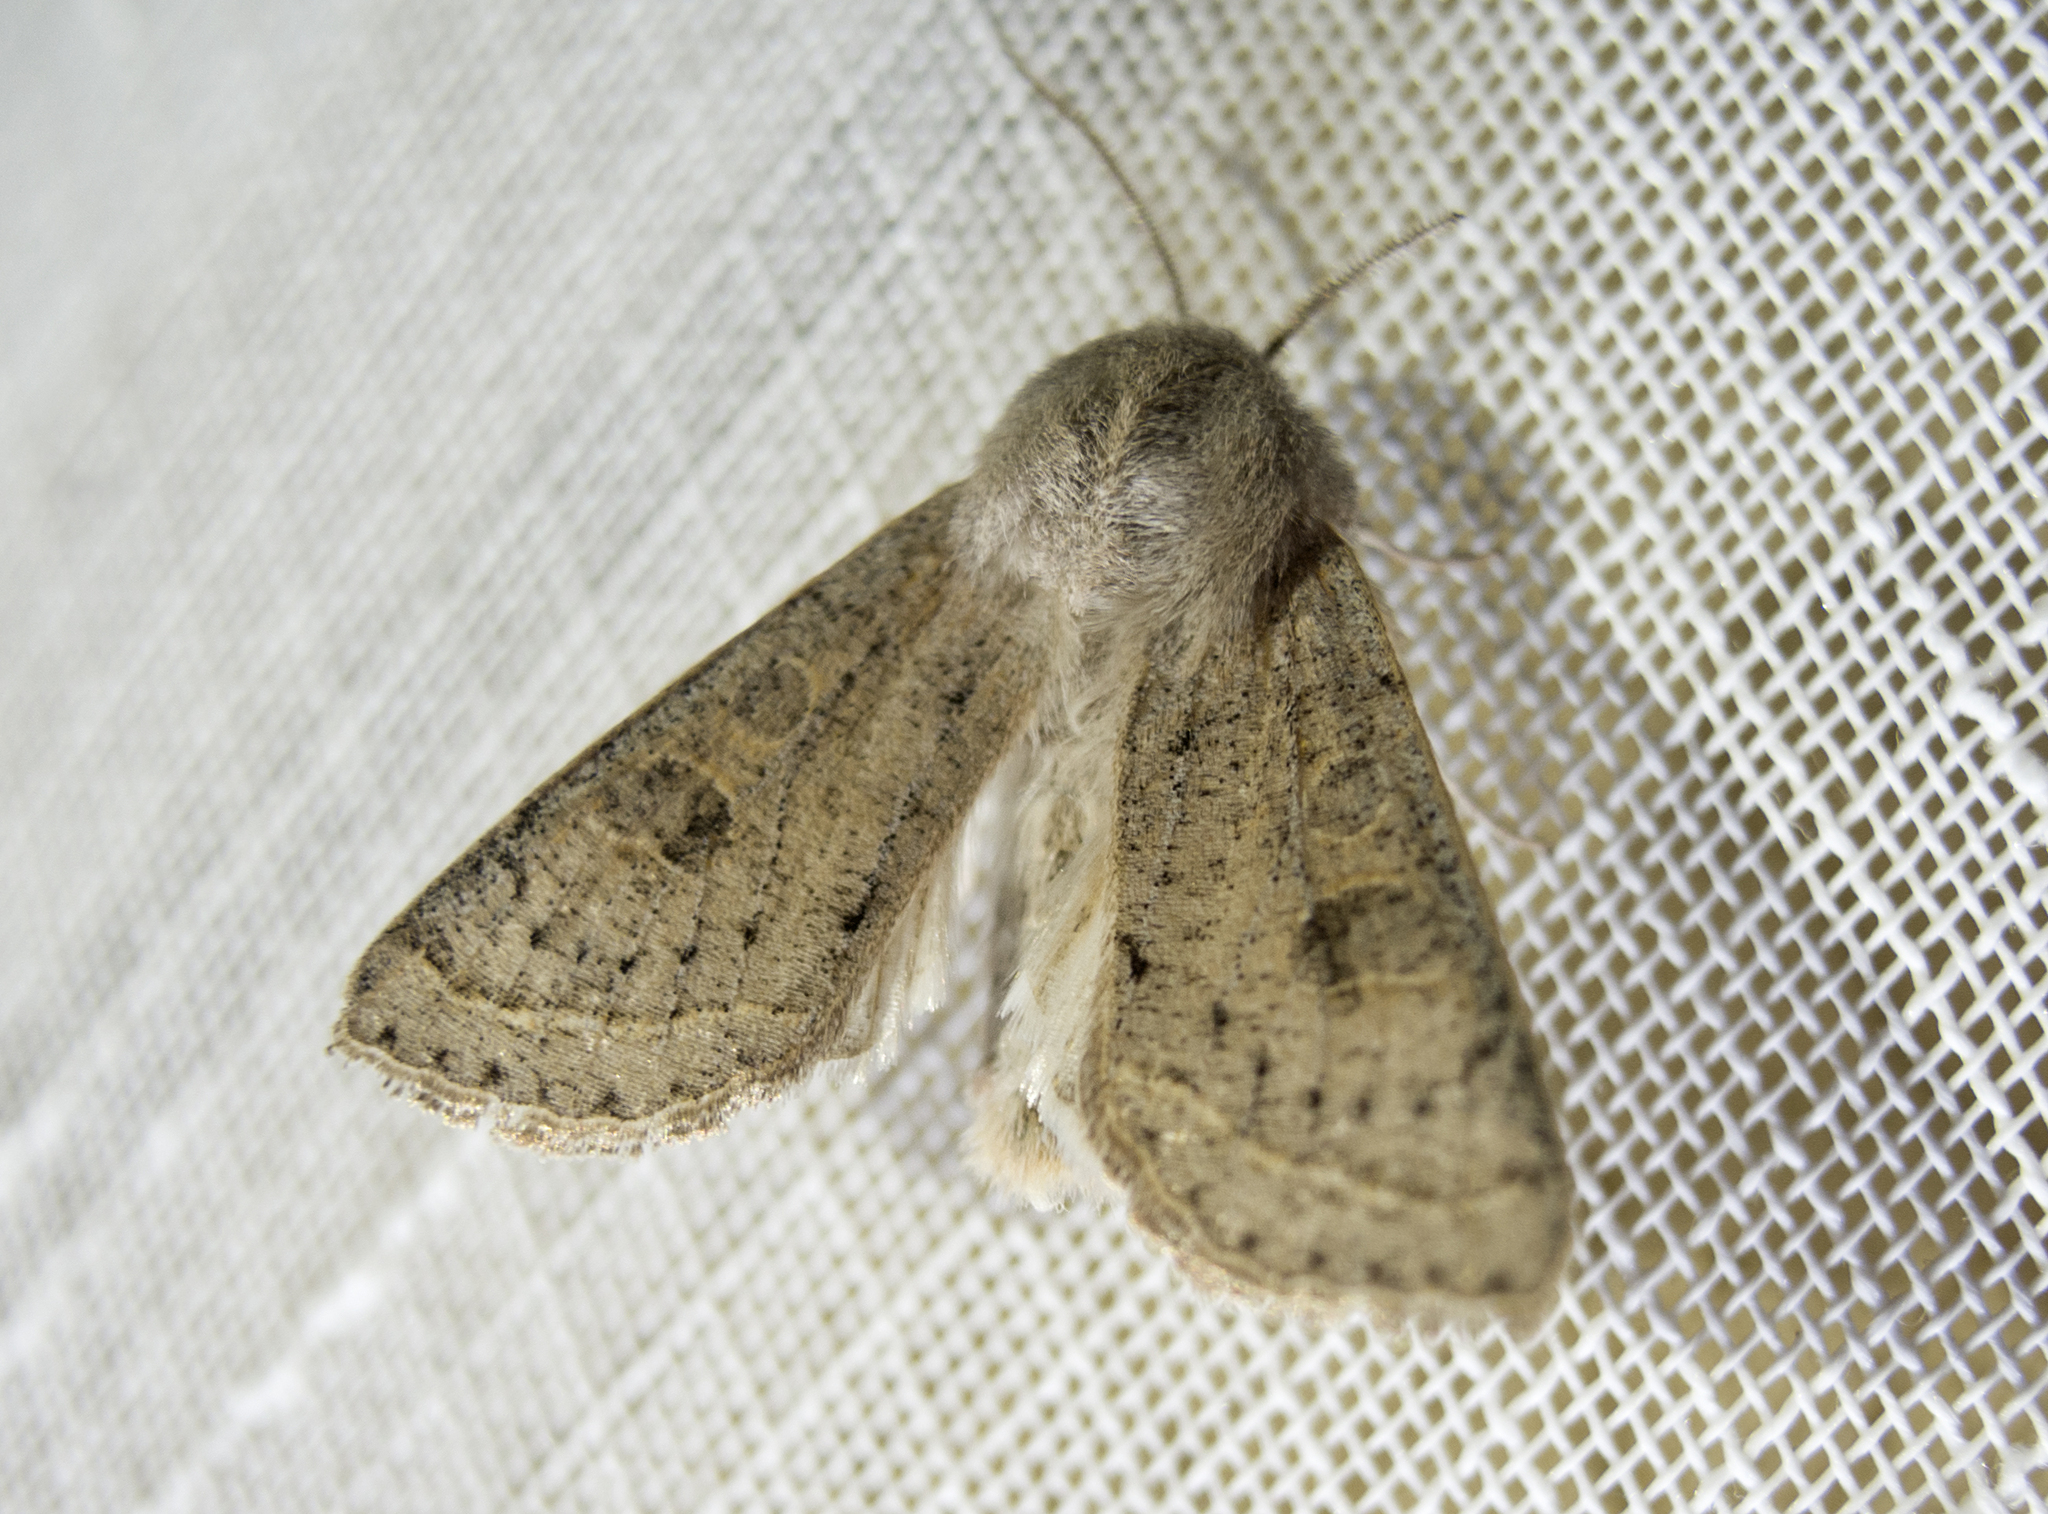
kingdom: Animalia
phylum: Arthropoda
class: Insecta
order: Lepidoptera
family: Noctuidae
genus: Orthosia
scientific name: Orthosia gracilis
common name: Powdered quaker
